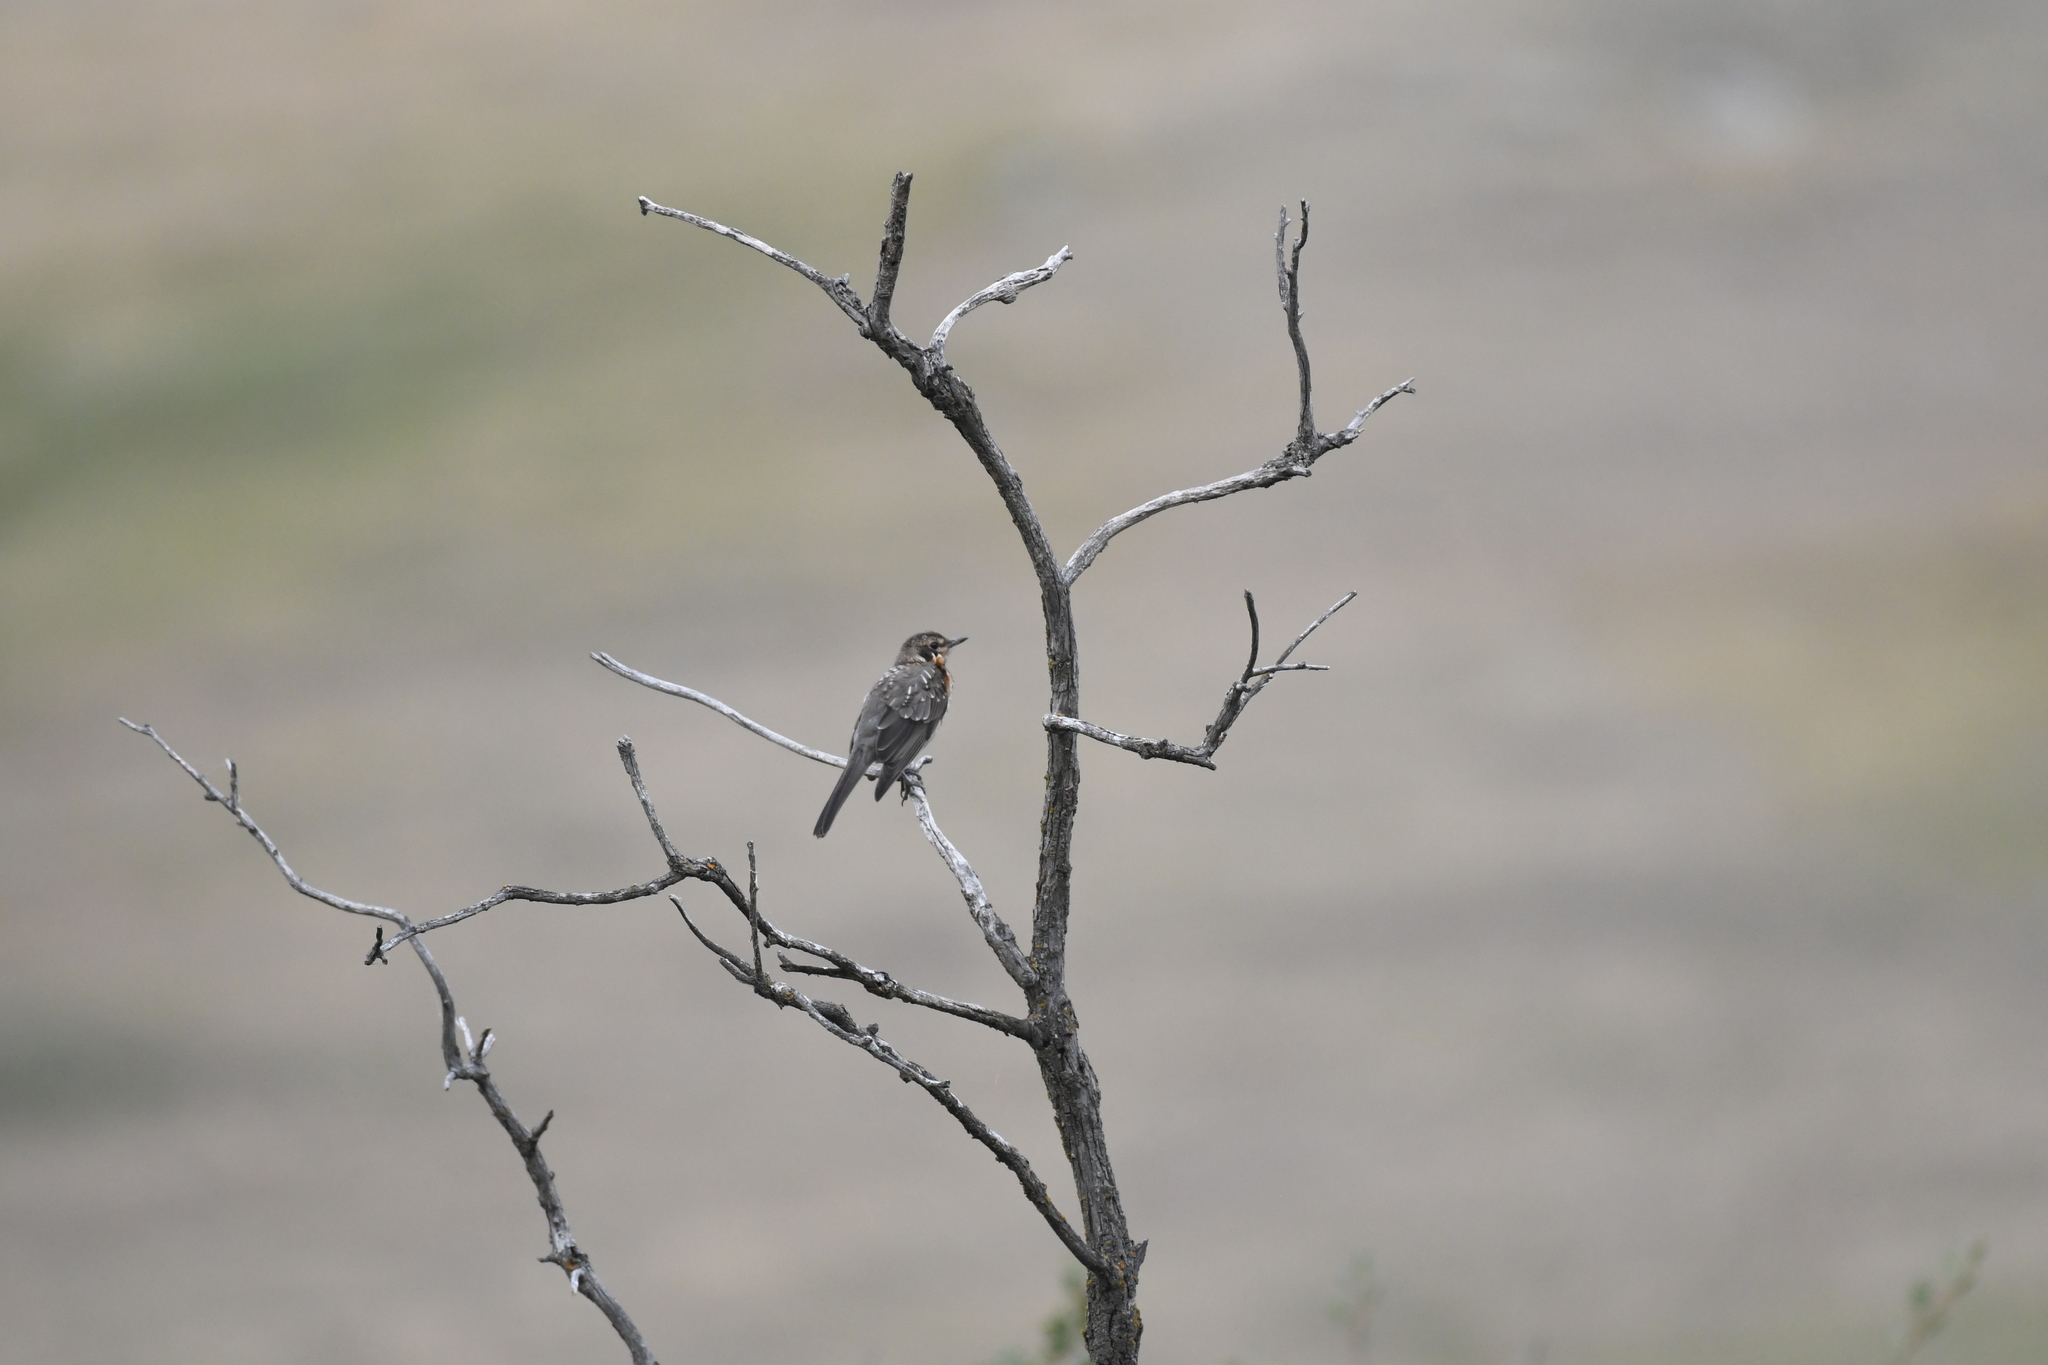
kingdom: Animalia
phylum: Chordata
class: Aves
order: Passeriformes
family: Turdidae
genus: Turdus
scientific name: Turdus migratorius
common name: American robin
